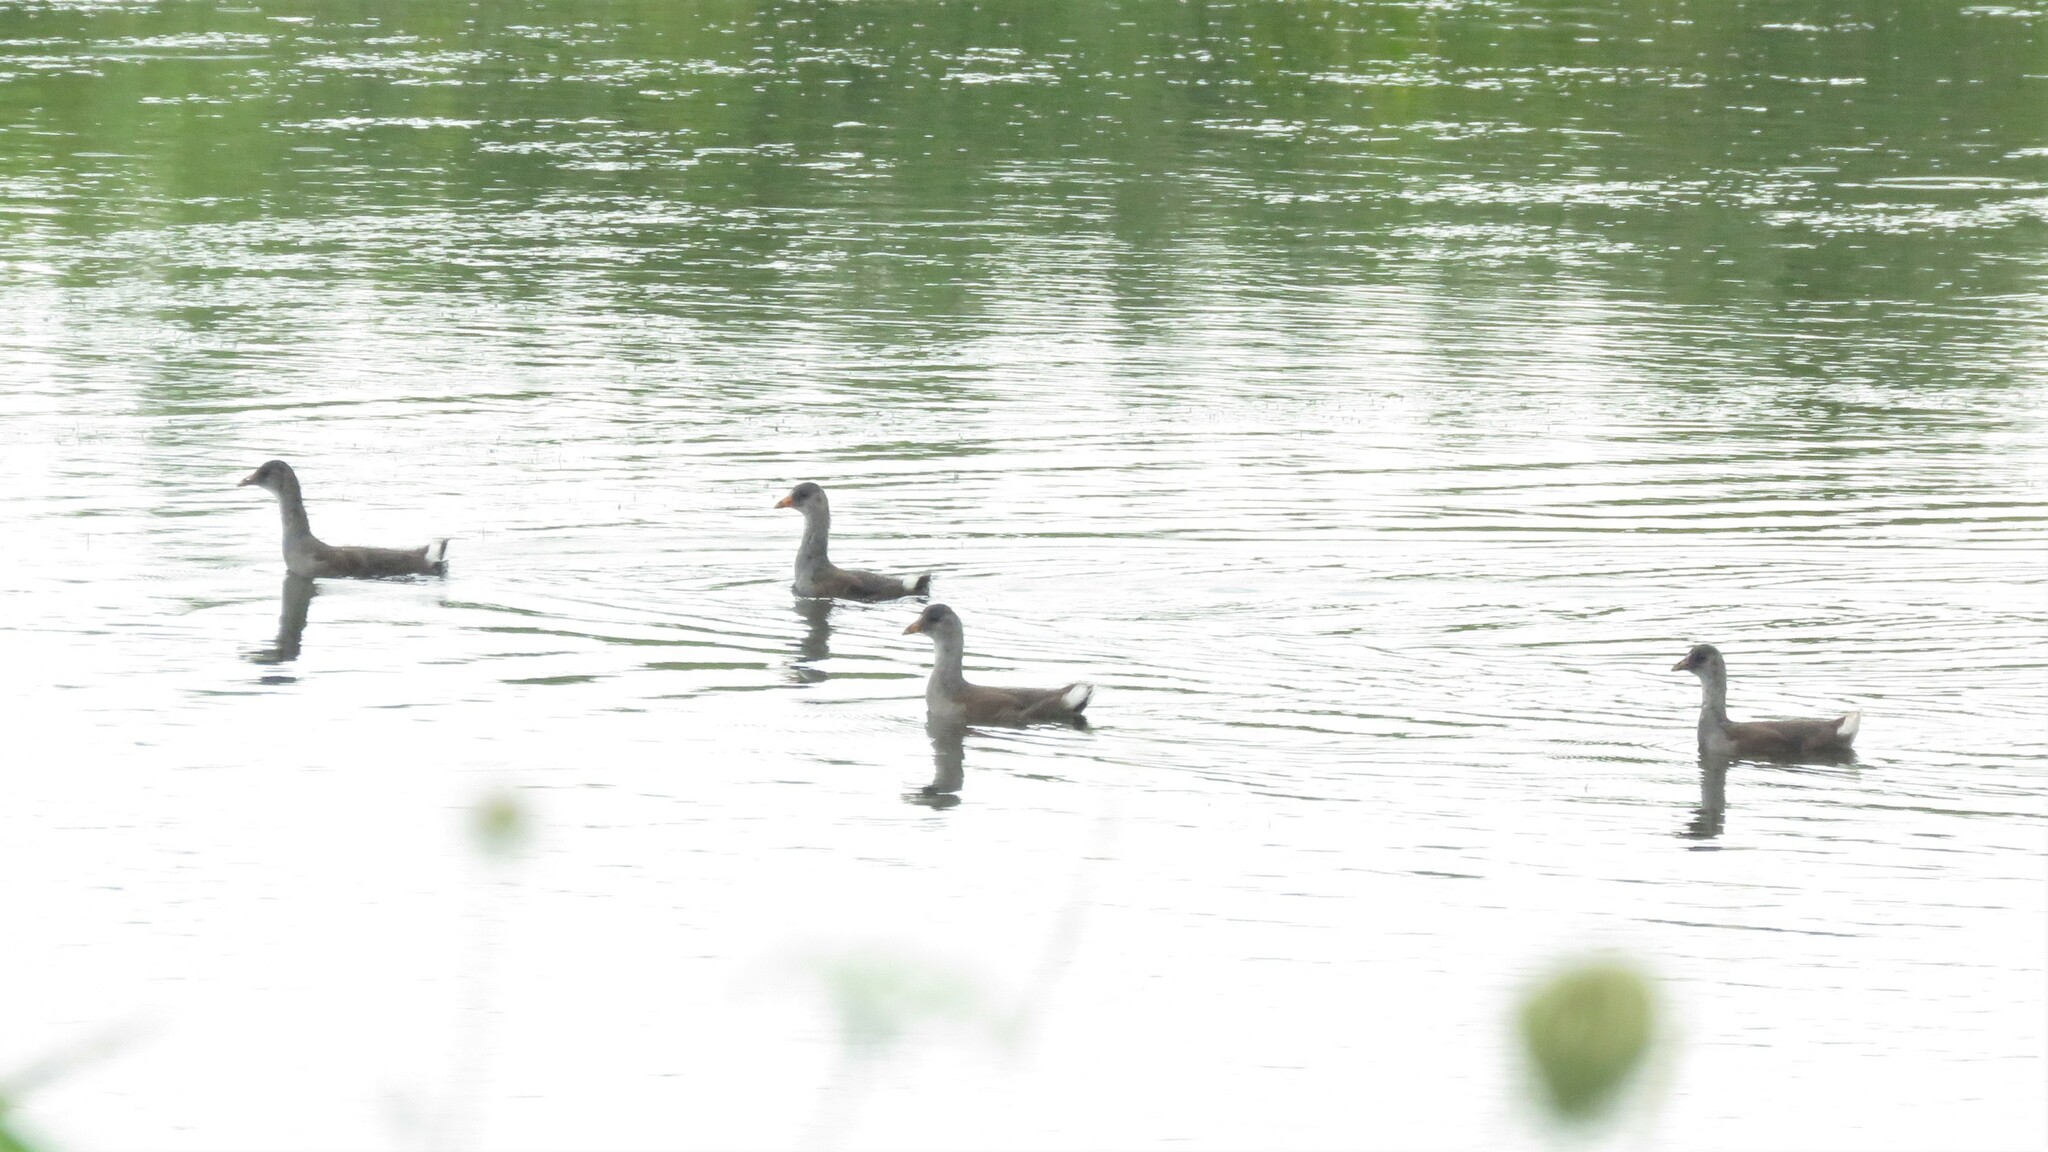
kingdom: Animalia
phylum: Chordata
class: Aves
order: Gruiformes
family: Rallidae
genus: Gallinula
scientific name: Gallinula chloropus
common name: Common moorhen
